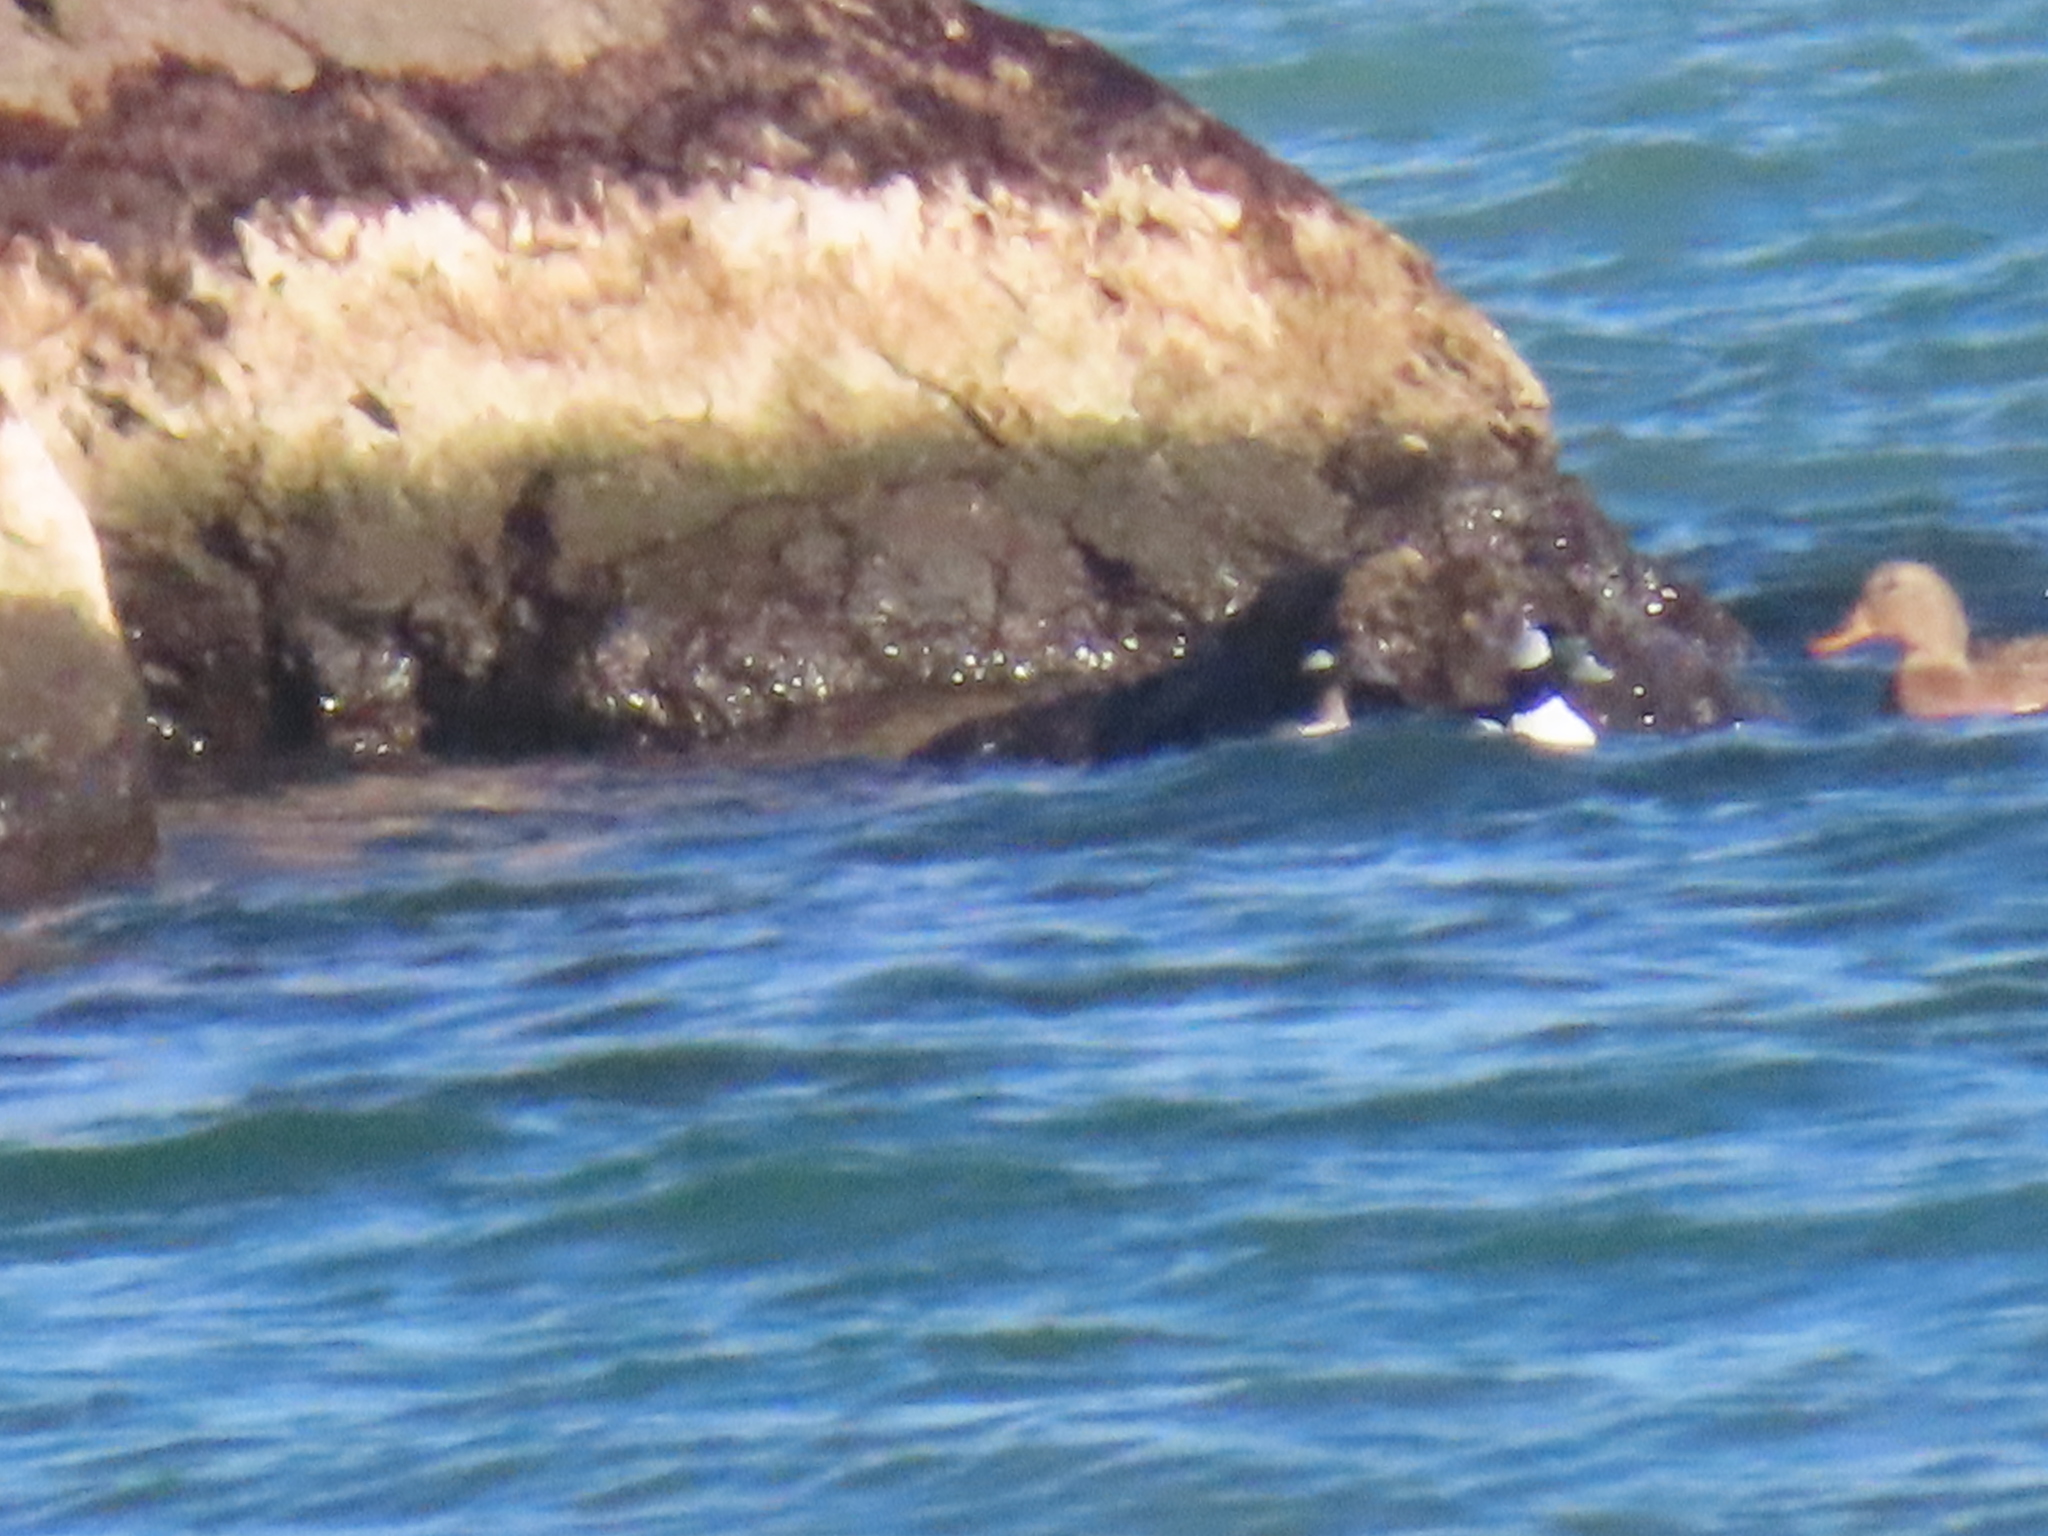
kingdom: Animalia
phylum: Chordata
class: Aves
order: Anseriformes
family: Anatidae
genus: Bucephala
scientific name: Bucephala albeola
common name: Bufflehead
